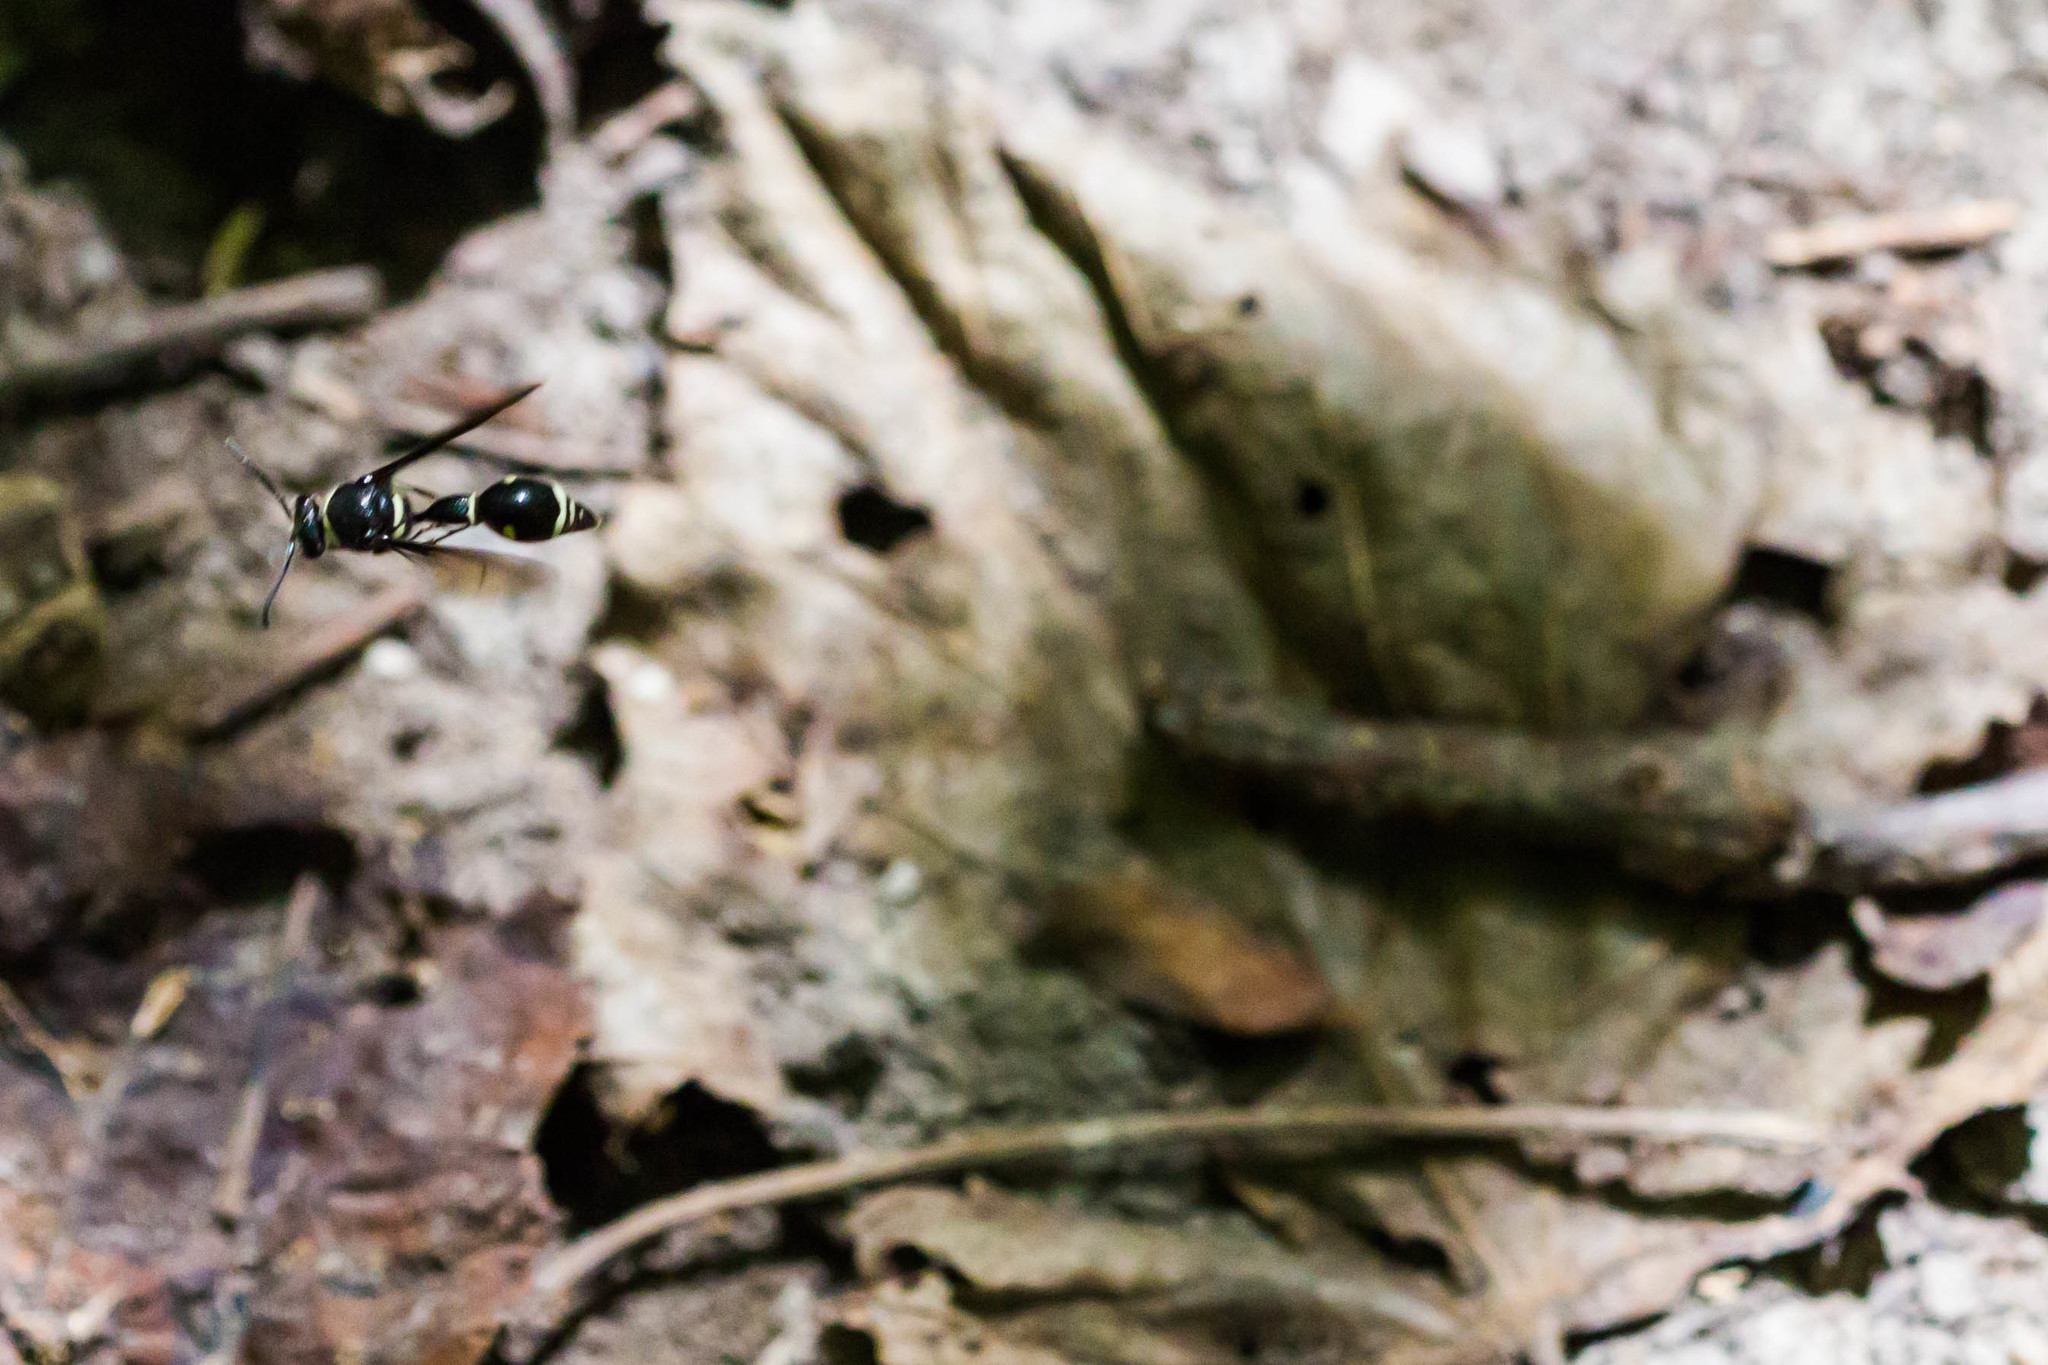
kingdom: Animalia
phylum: Arthropoda
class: Insecta
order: Hymenoptera
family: Vespidae
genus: Eumenes
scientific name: Eumenes fraternus
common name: Fraternal potter wasp
